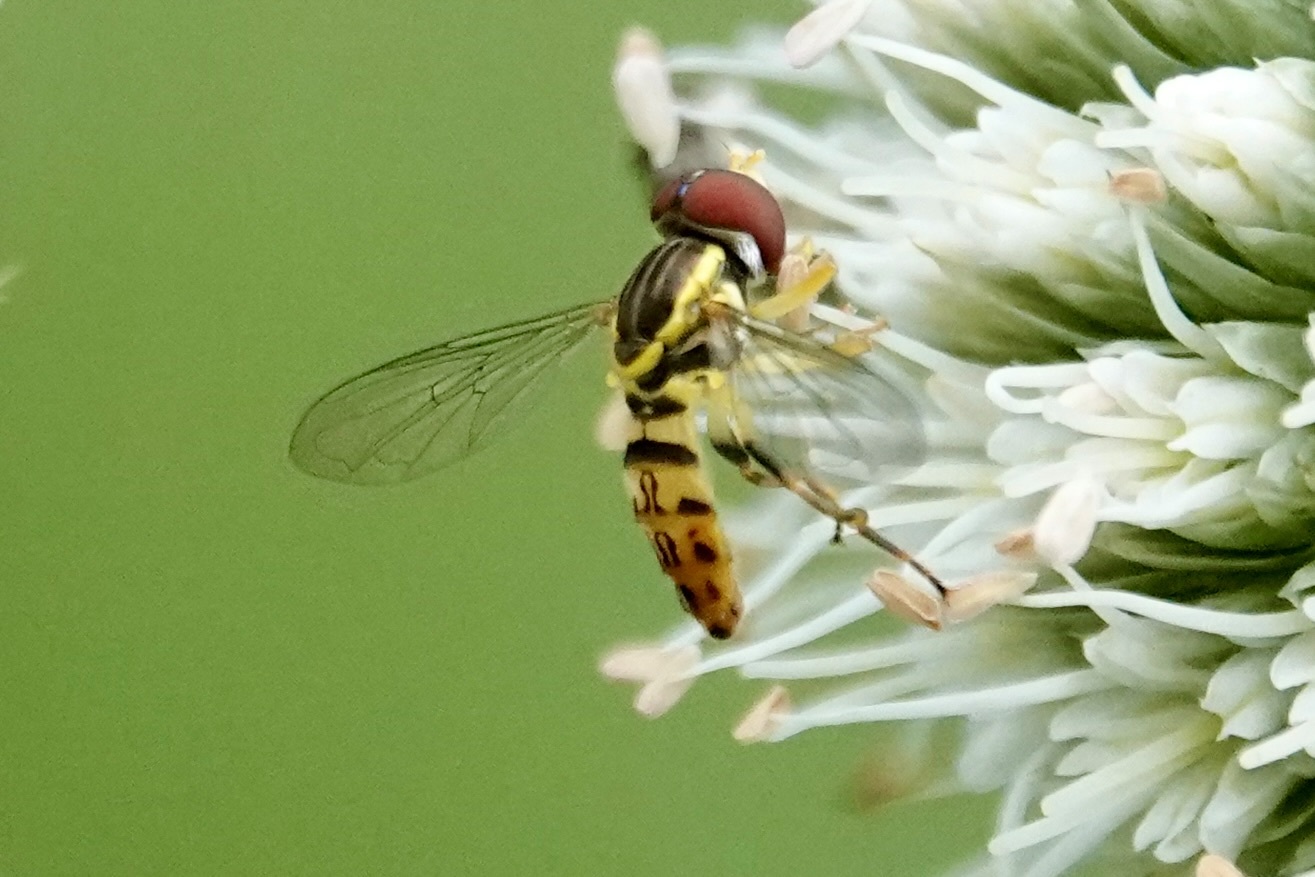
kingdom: Animalia
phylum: Arthropoda
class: Insecta
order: Diptera
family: Syrphidae
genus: Toxomerus
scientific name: Toxomerus geminatus
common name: Eastern calligrapher
